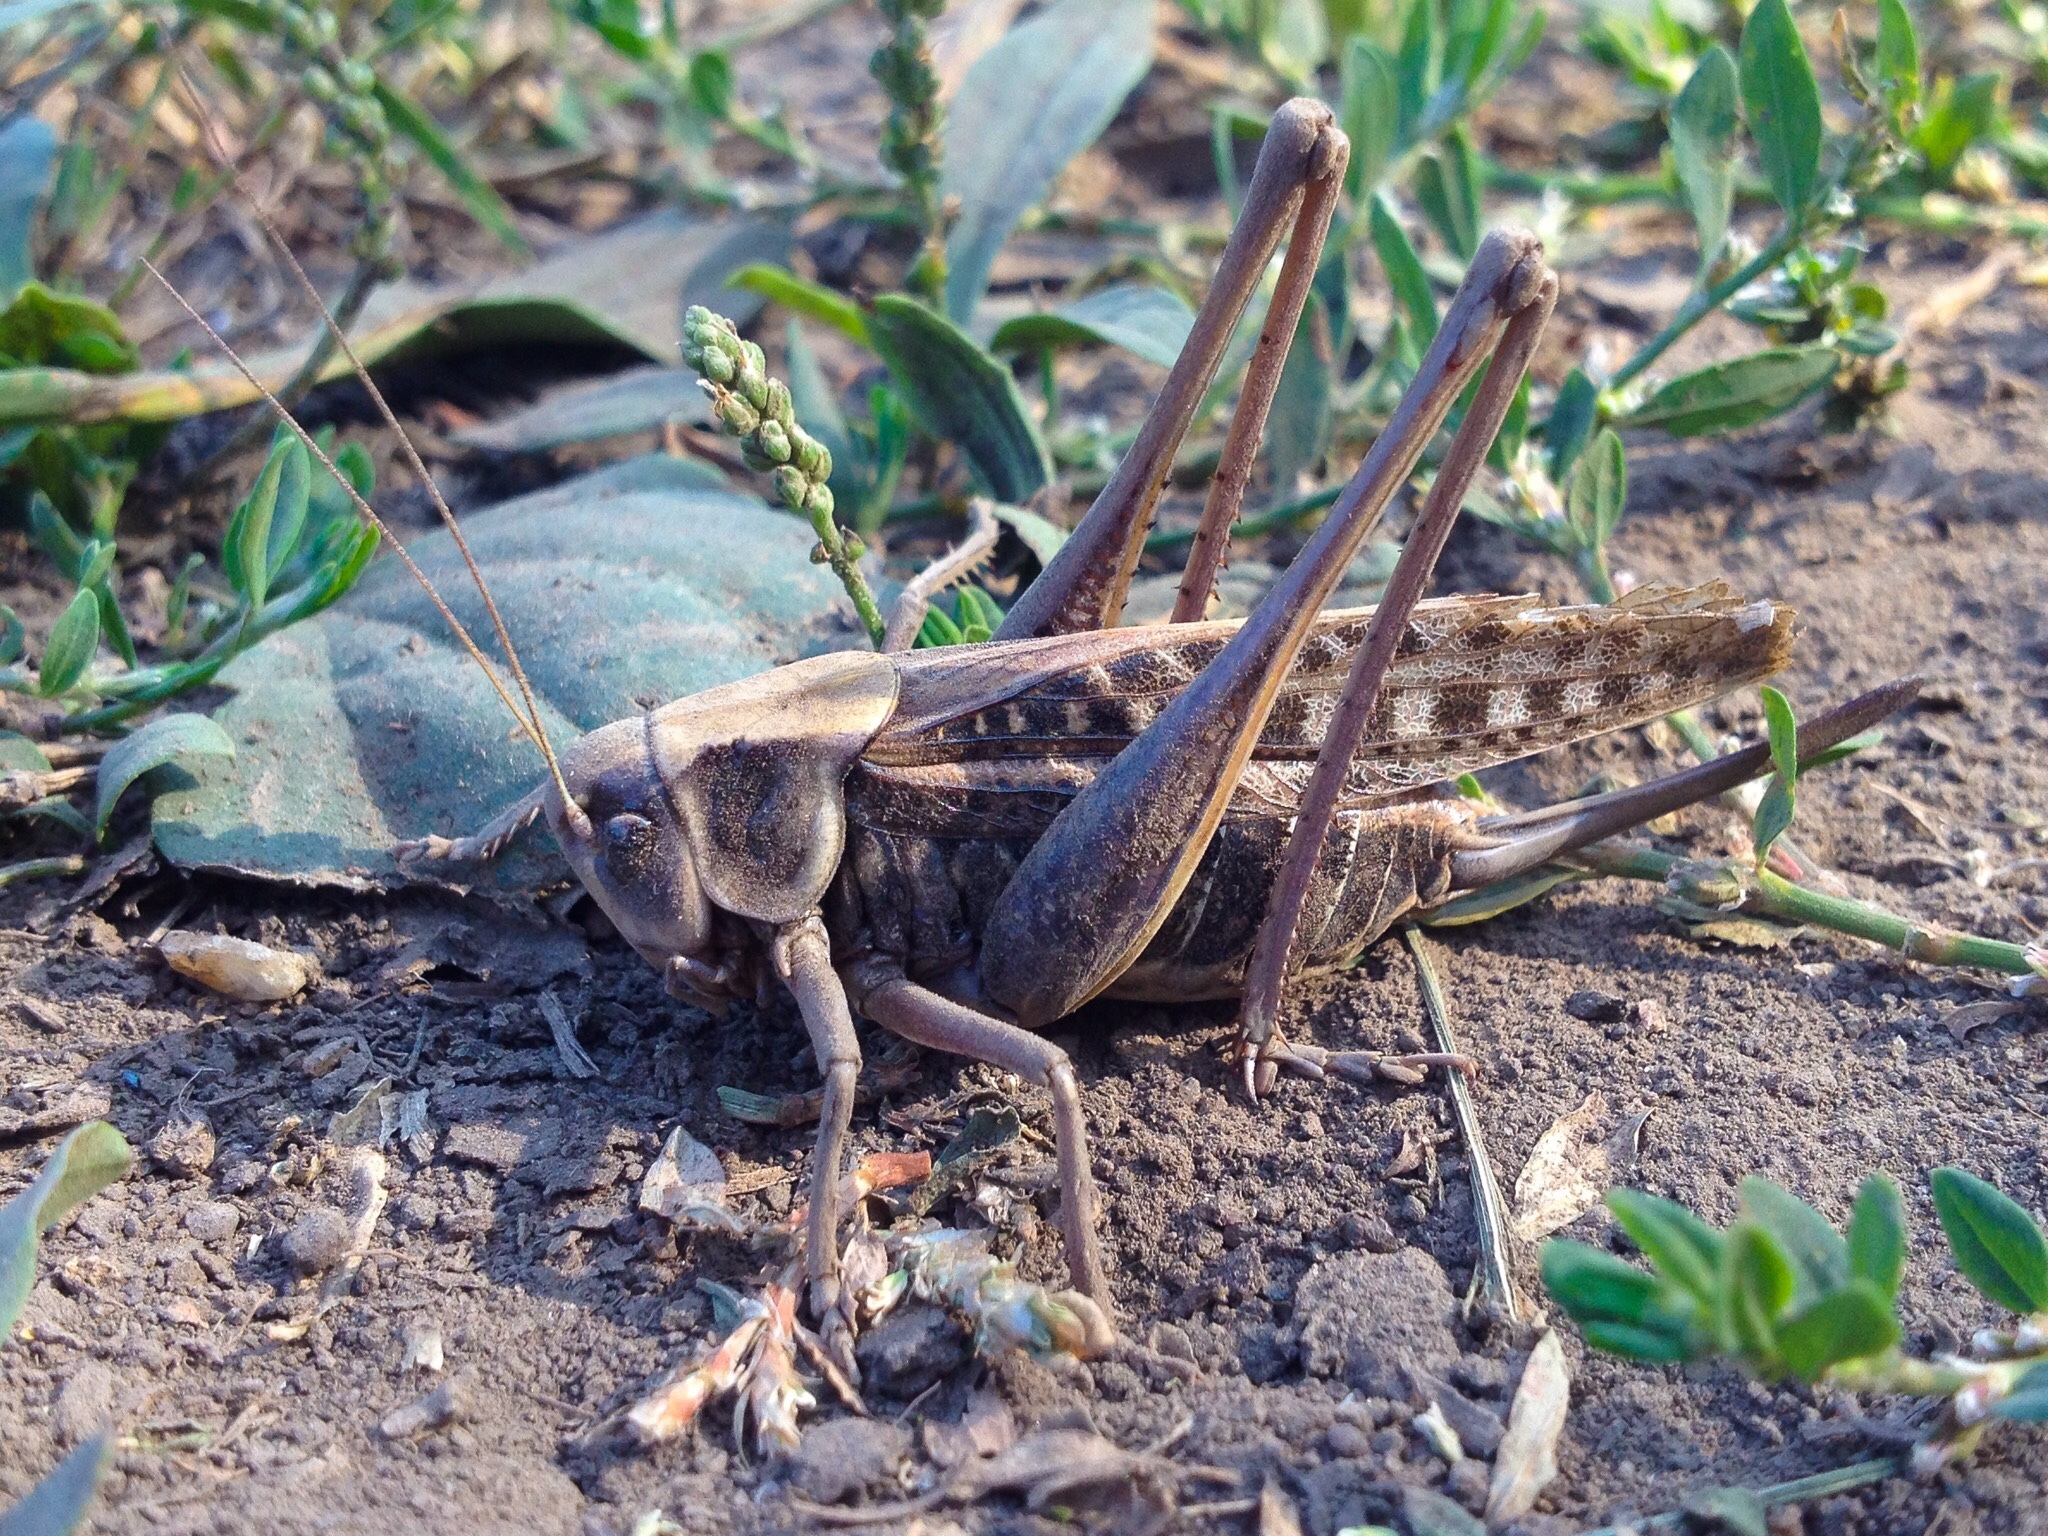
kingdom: Animalia
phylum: Arthropoda
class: Insecta
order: Orthoptera
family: Tettigoniidae
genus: Decticus
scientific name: Decticus verrucivorus
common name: Wart-biter
